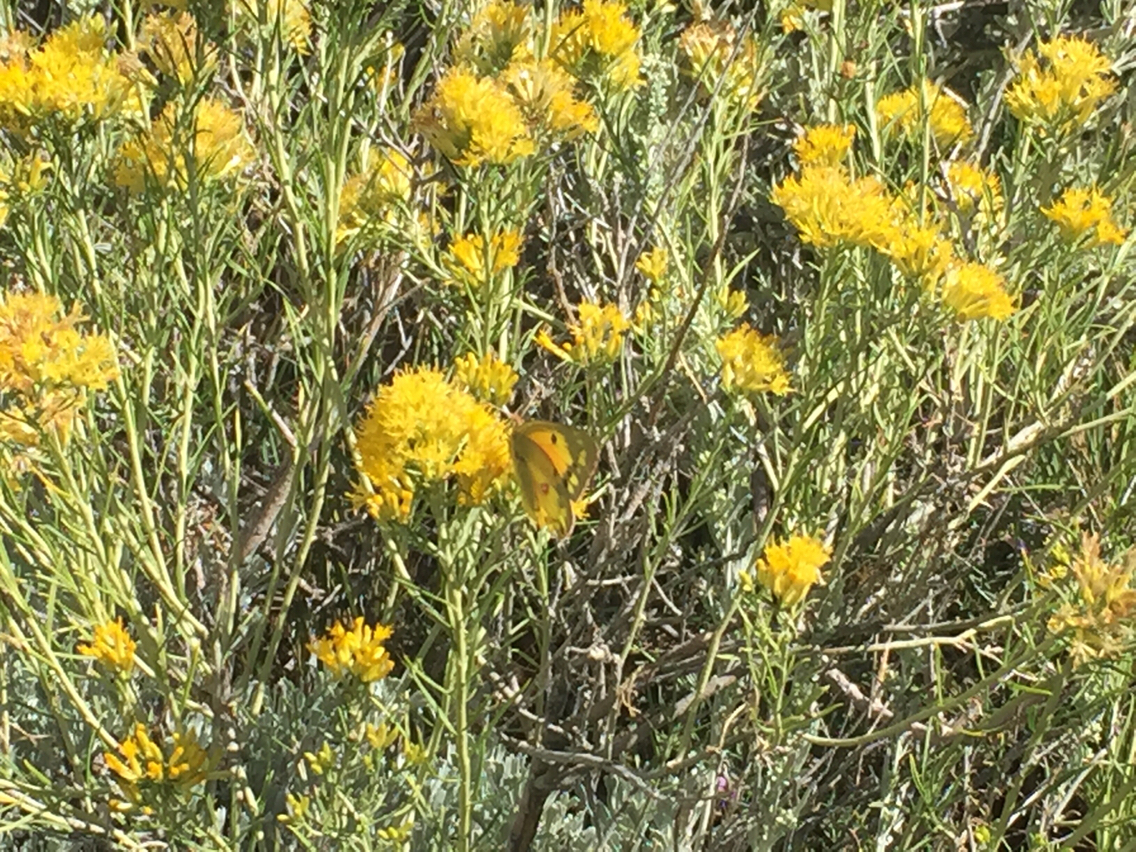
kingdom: Animalia
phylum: Arthropoda
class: Insecta
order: Lepidoptera
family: Pieridae
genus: Colias
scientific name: Colias eurytheme
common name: Alfalfa butterfly
